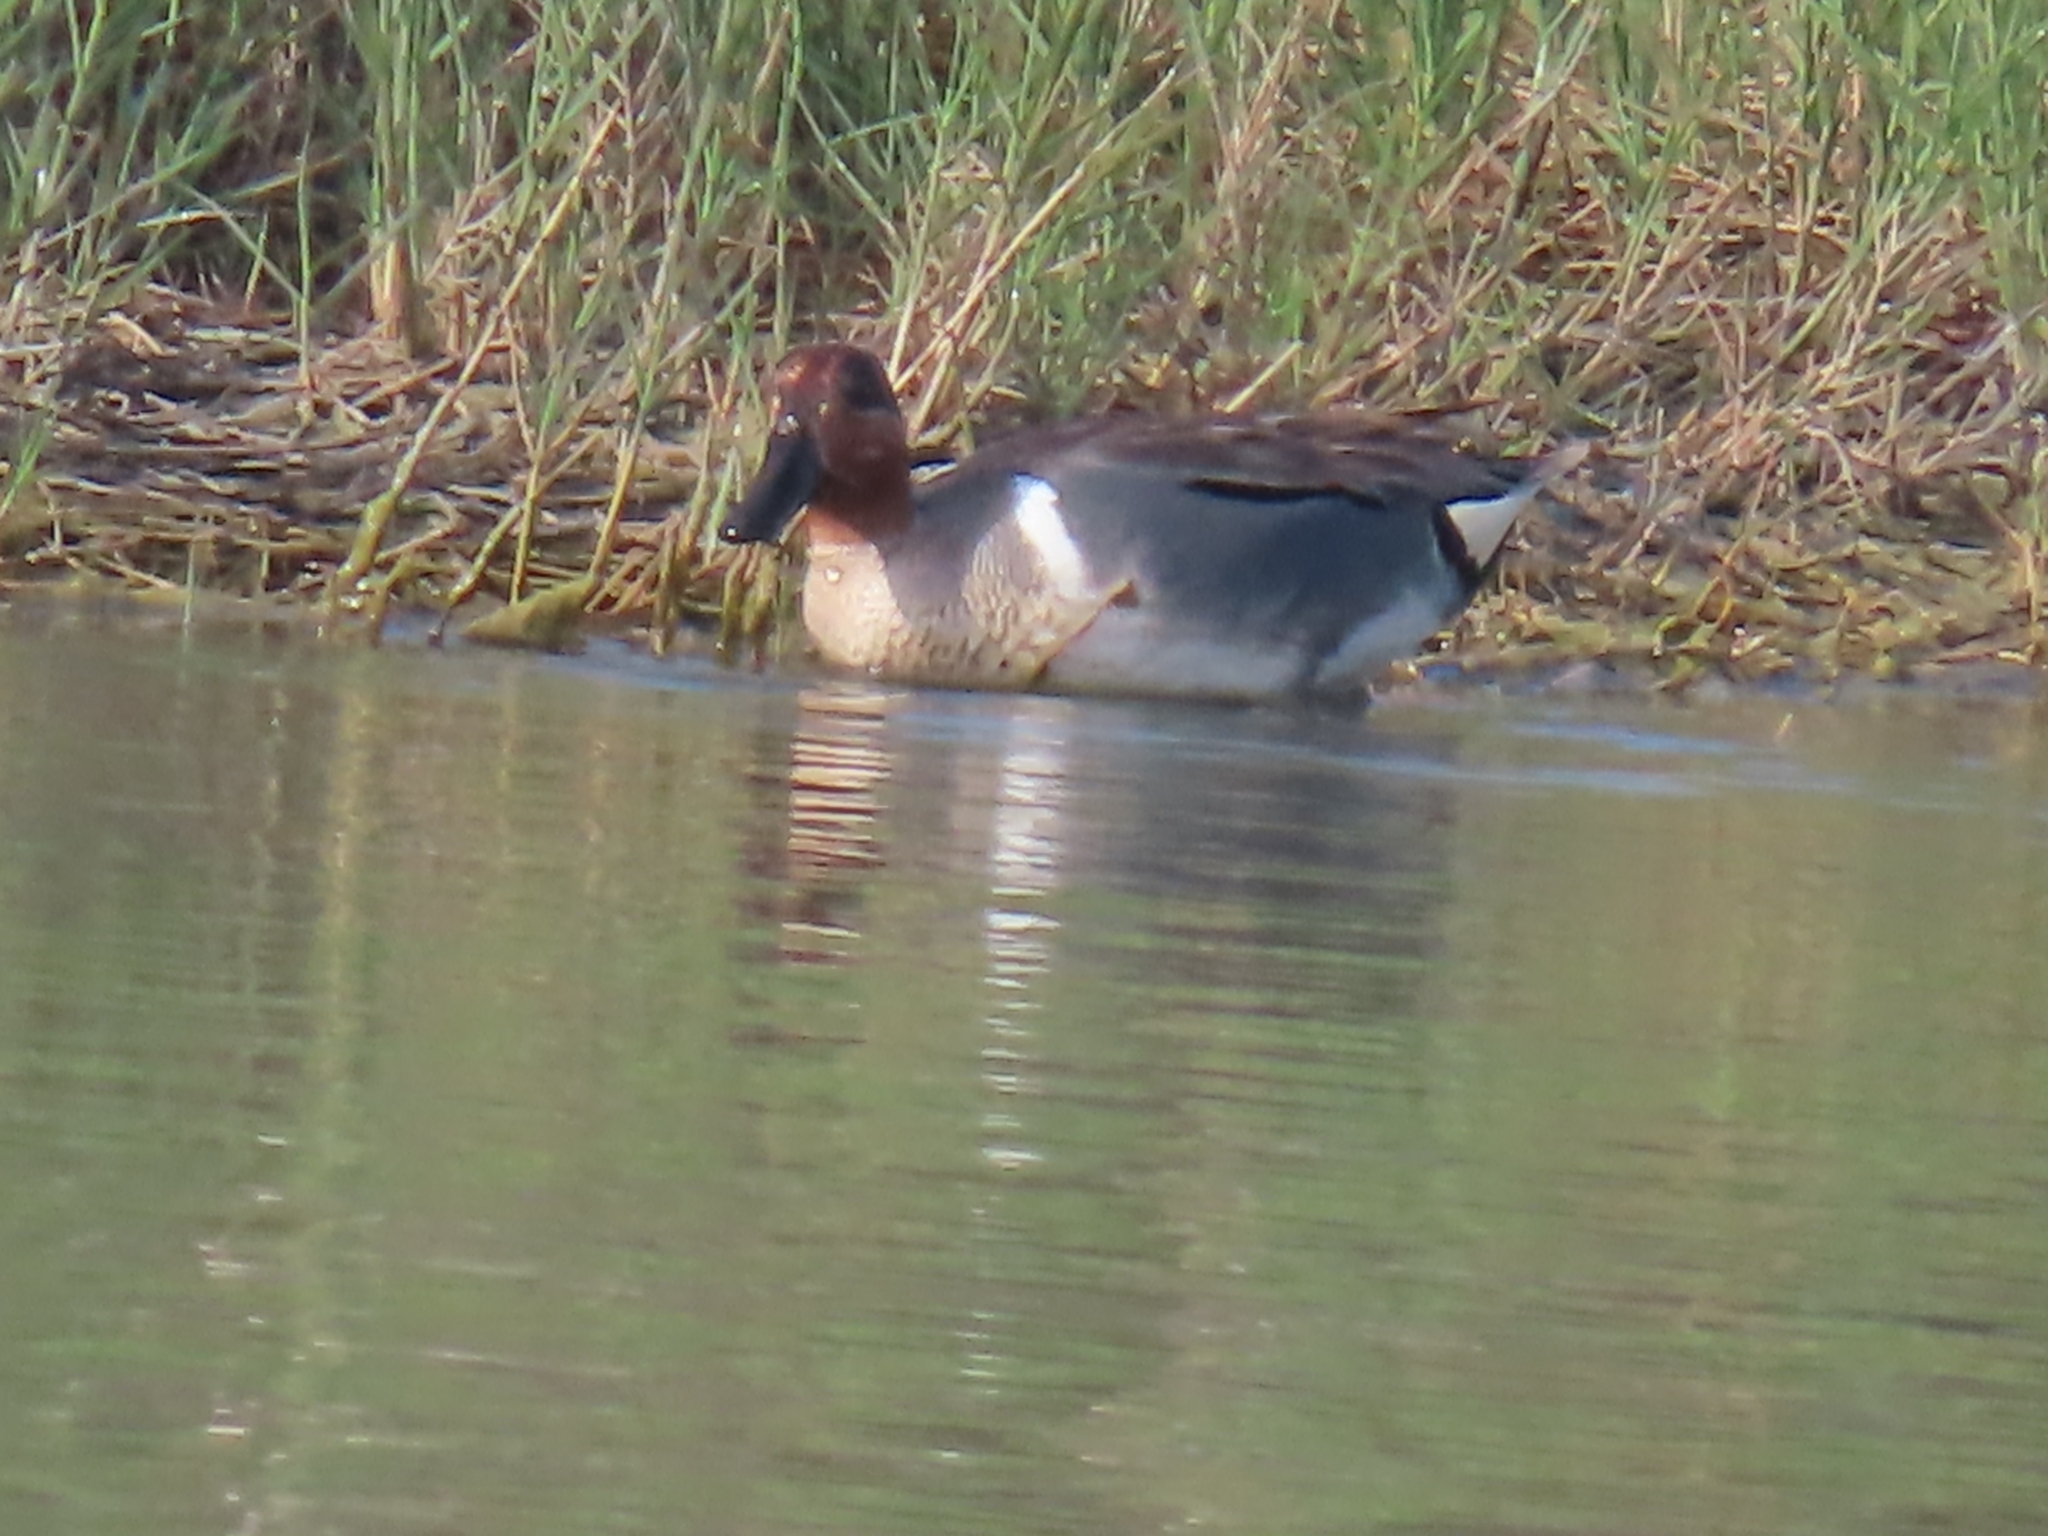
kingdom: Animalia
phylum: Chordata
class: Aves
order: Anseriformes
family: Anatidae
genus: Anas
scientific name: Anas crecca
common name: Eurasian teal
